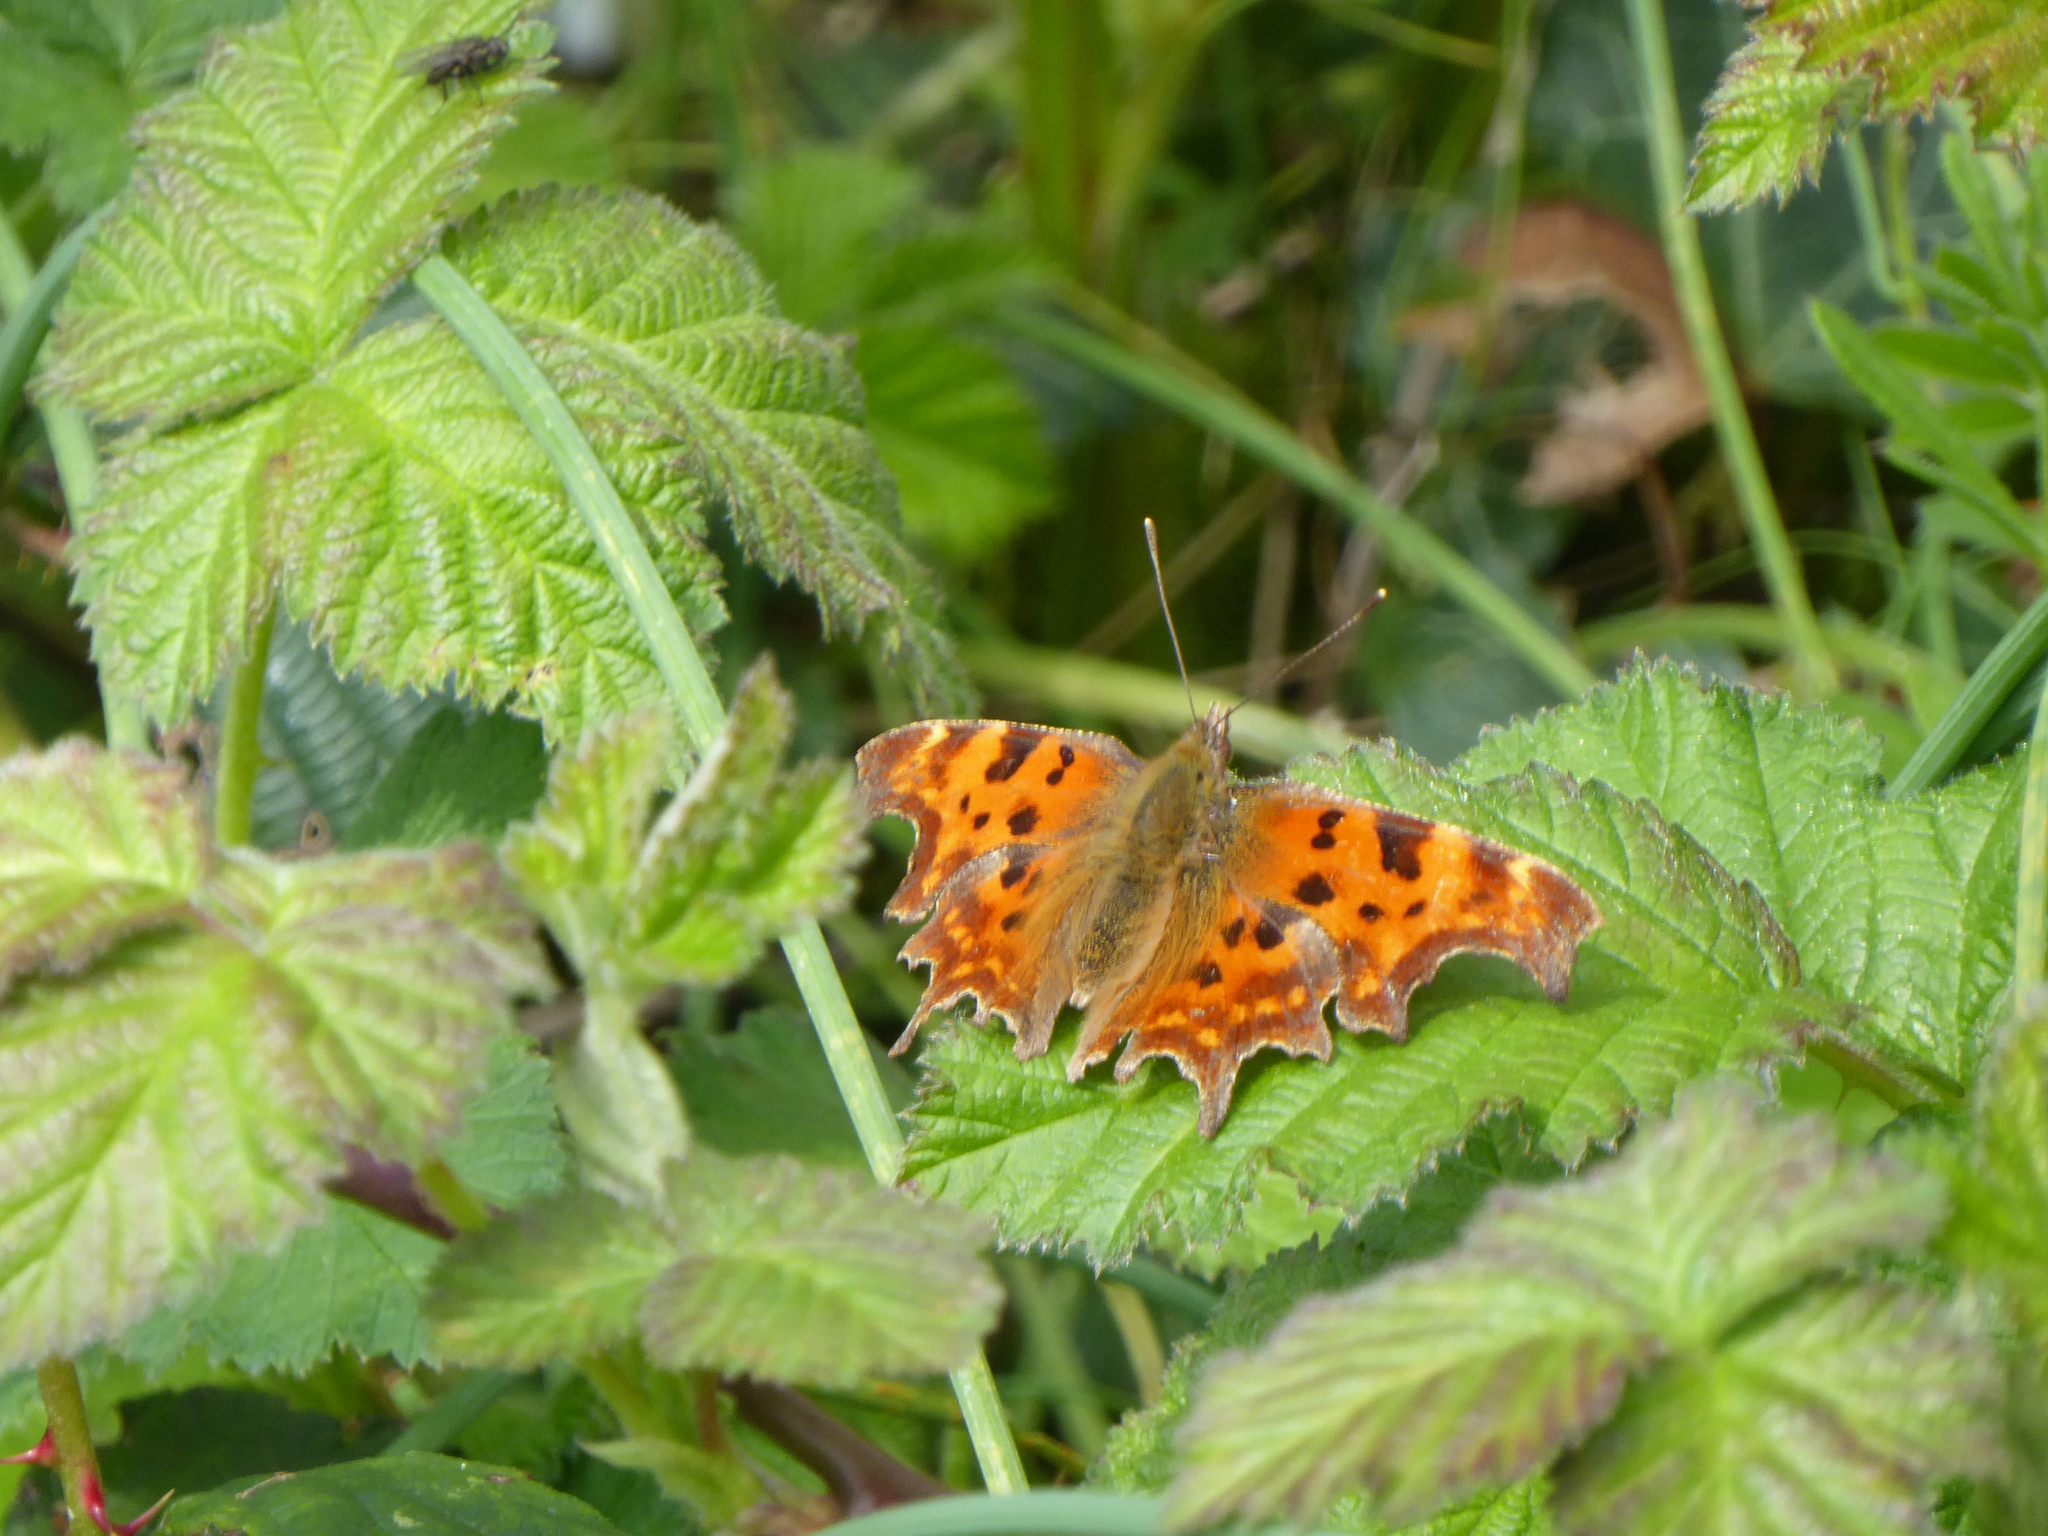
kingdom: Animalia
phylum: Arthropoda
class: Insecta
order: Lepidoptera
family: Nymphalidae
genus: Polygonia
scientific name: Polygonia c-album
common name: Comma
